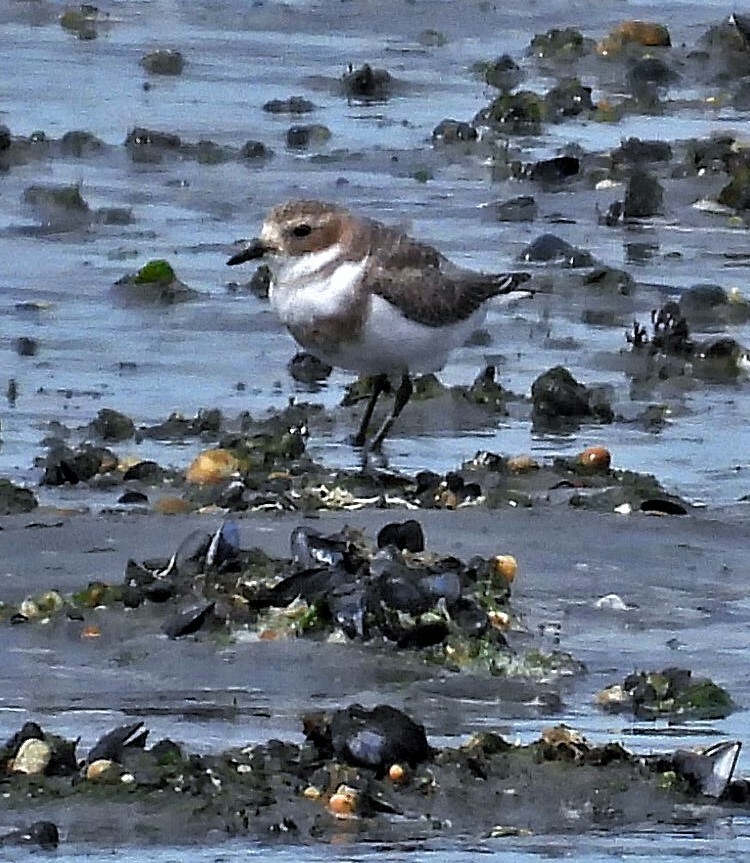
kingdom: Animalia
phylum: Chordata
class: Aves
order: Charadriiformes
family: Charadriidae
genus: Anarhynchus
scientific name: Anarhynchus
